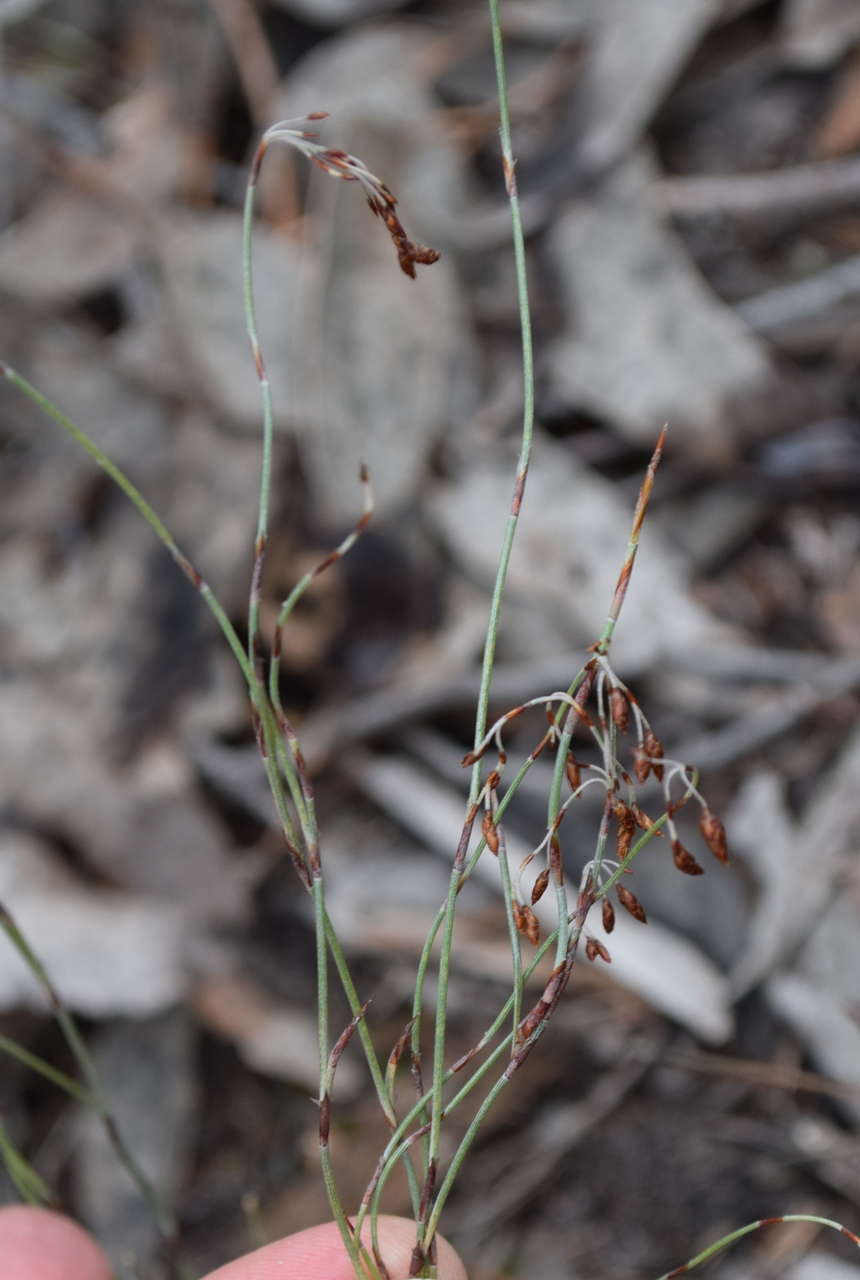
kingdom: Plantae
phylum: Tracheophyta
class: Liliopsida
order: Poales
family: Restionaceae
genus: Hypolaena
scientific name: Hypolaena fastigiata
